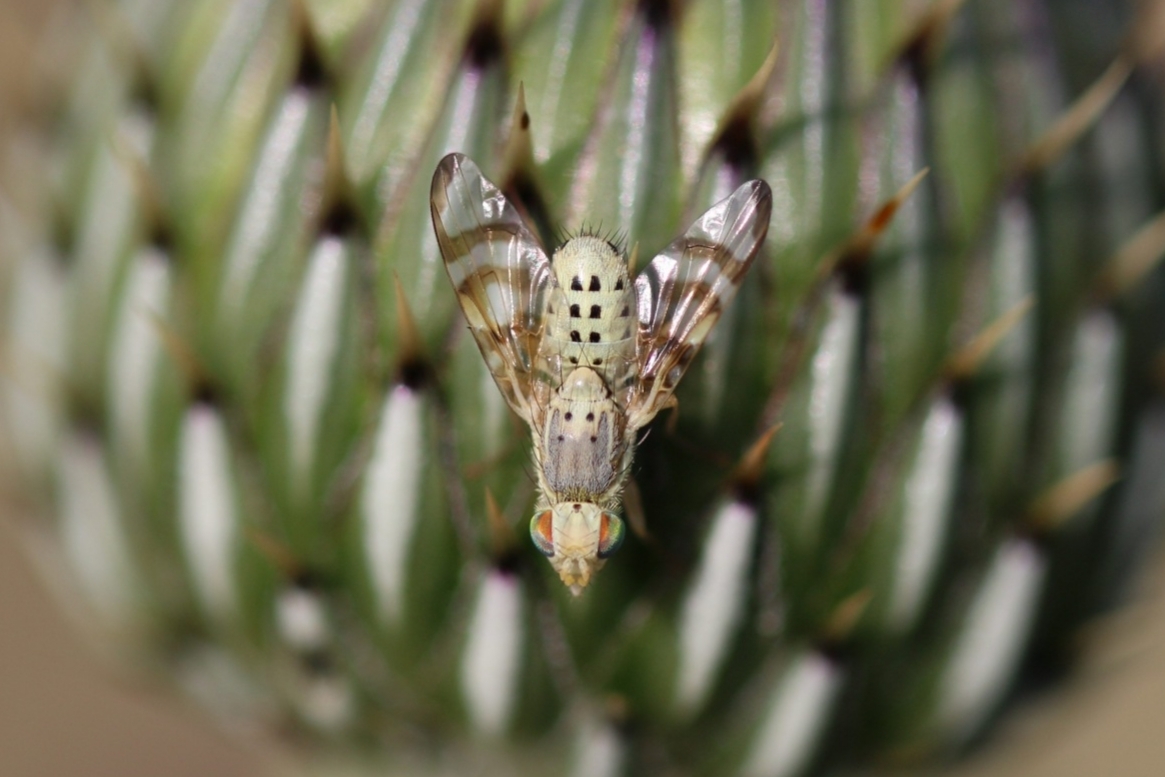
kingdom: Animalia
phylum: Arthropoda
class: Insecta
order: Diptera
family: Tephritidae
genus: Terellia
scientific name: Terellia palposa
